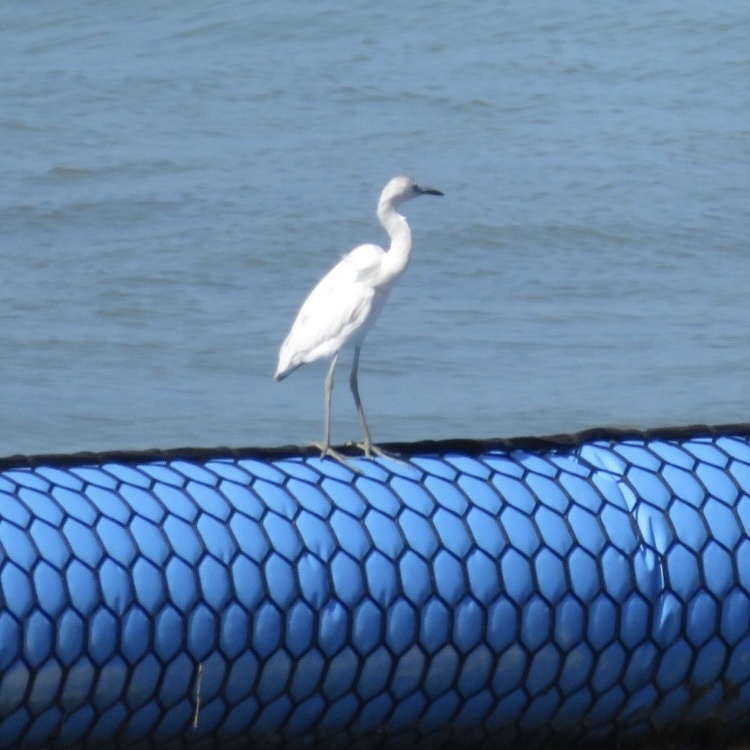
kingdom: Animalia
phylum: Chordata
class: Aves
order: Pelecaniformes
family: Ardeidae
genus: Egretta
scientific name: Egretta caerulea
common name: Little blue heron
